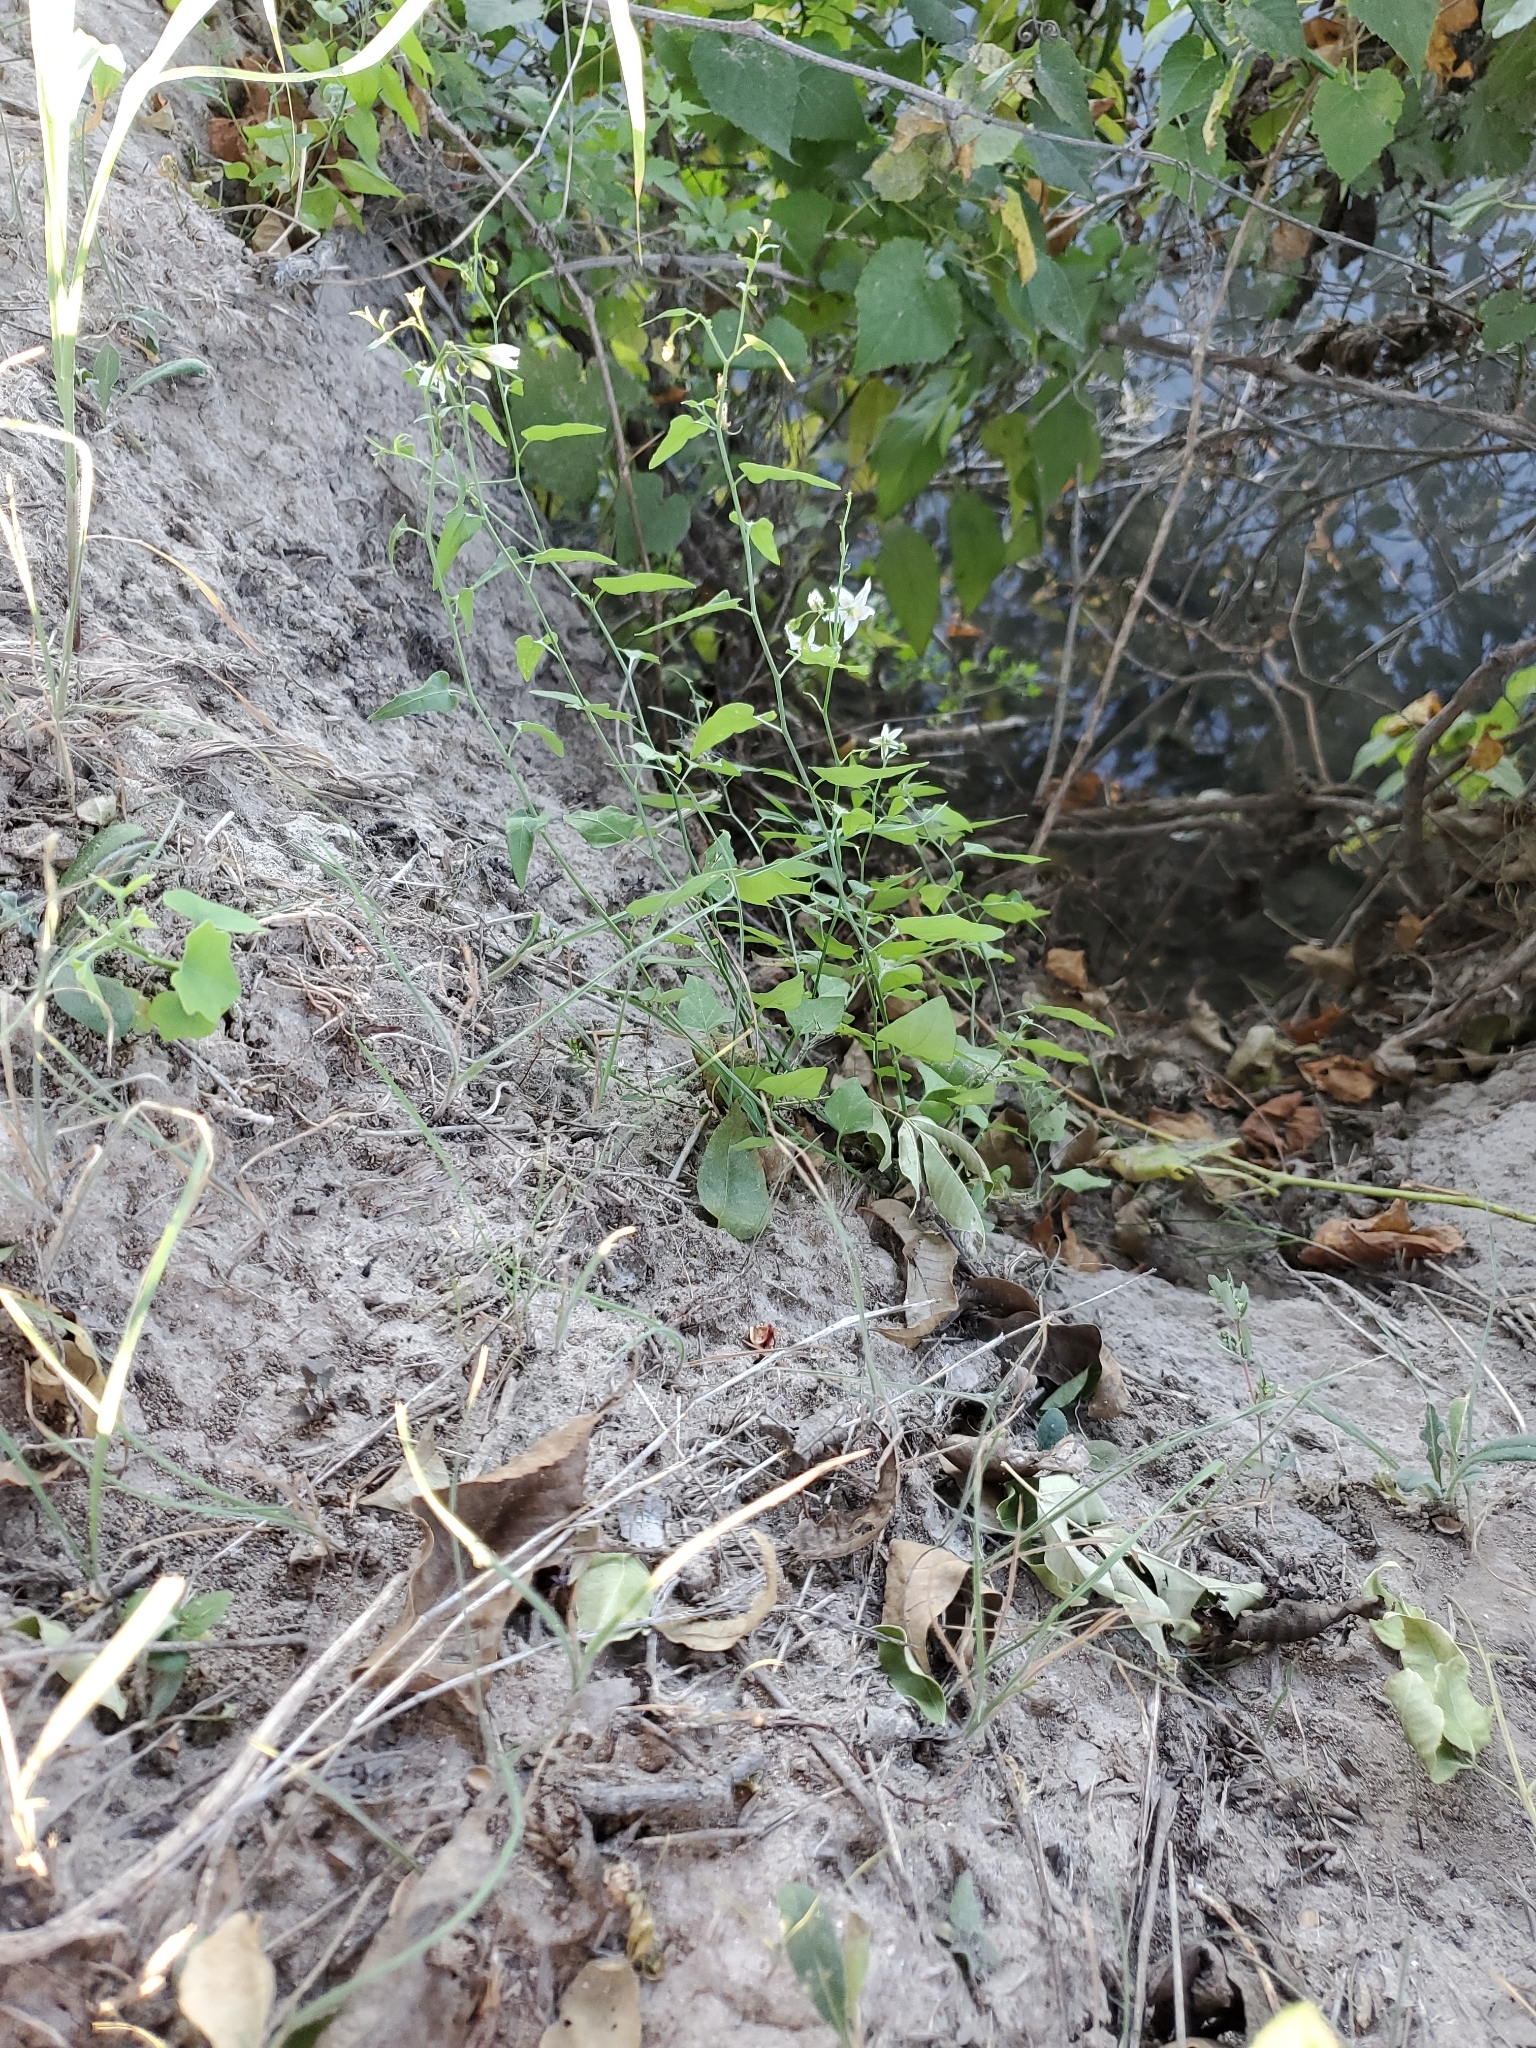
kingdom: Plantae
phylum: Tracheophyta
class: Magnoliopsida
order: Solanales
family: Solanaceae
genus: Solanum
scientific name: Solanum triquetrum
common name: Texas nightshade
